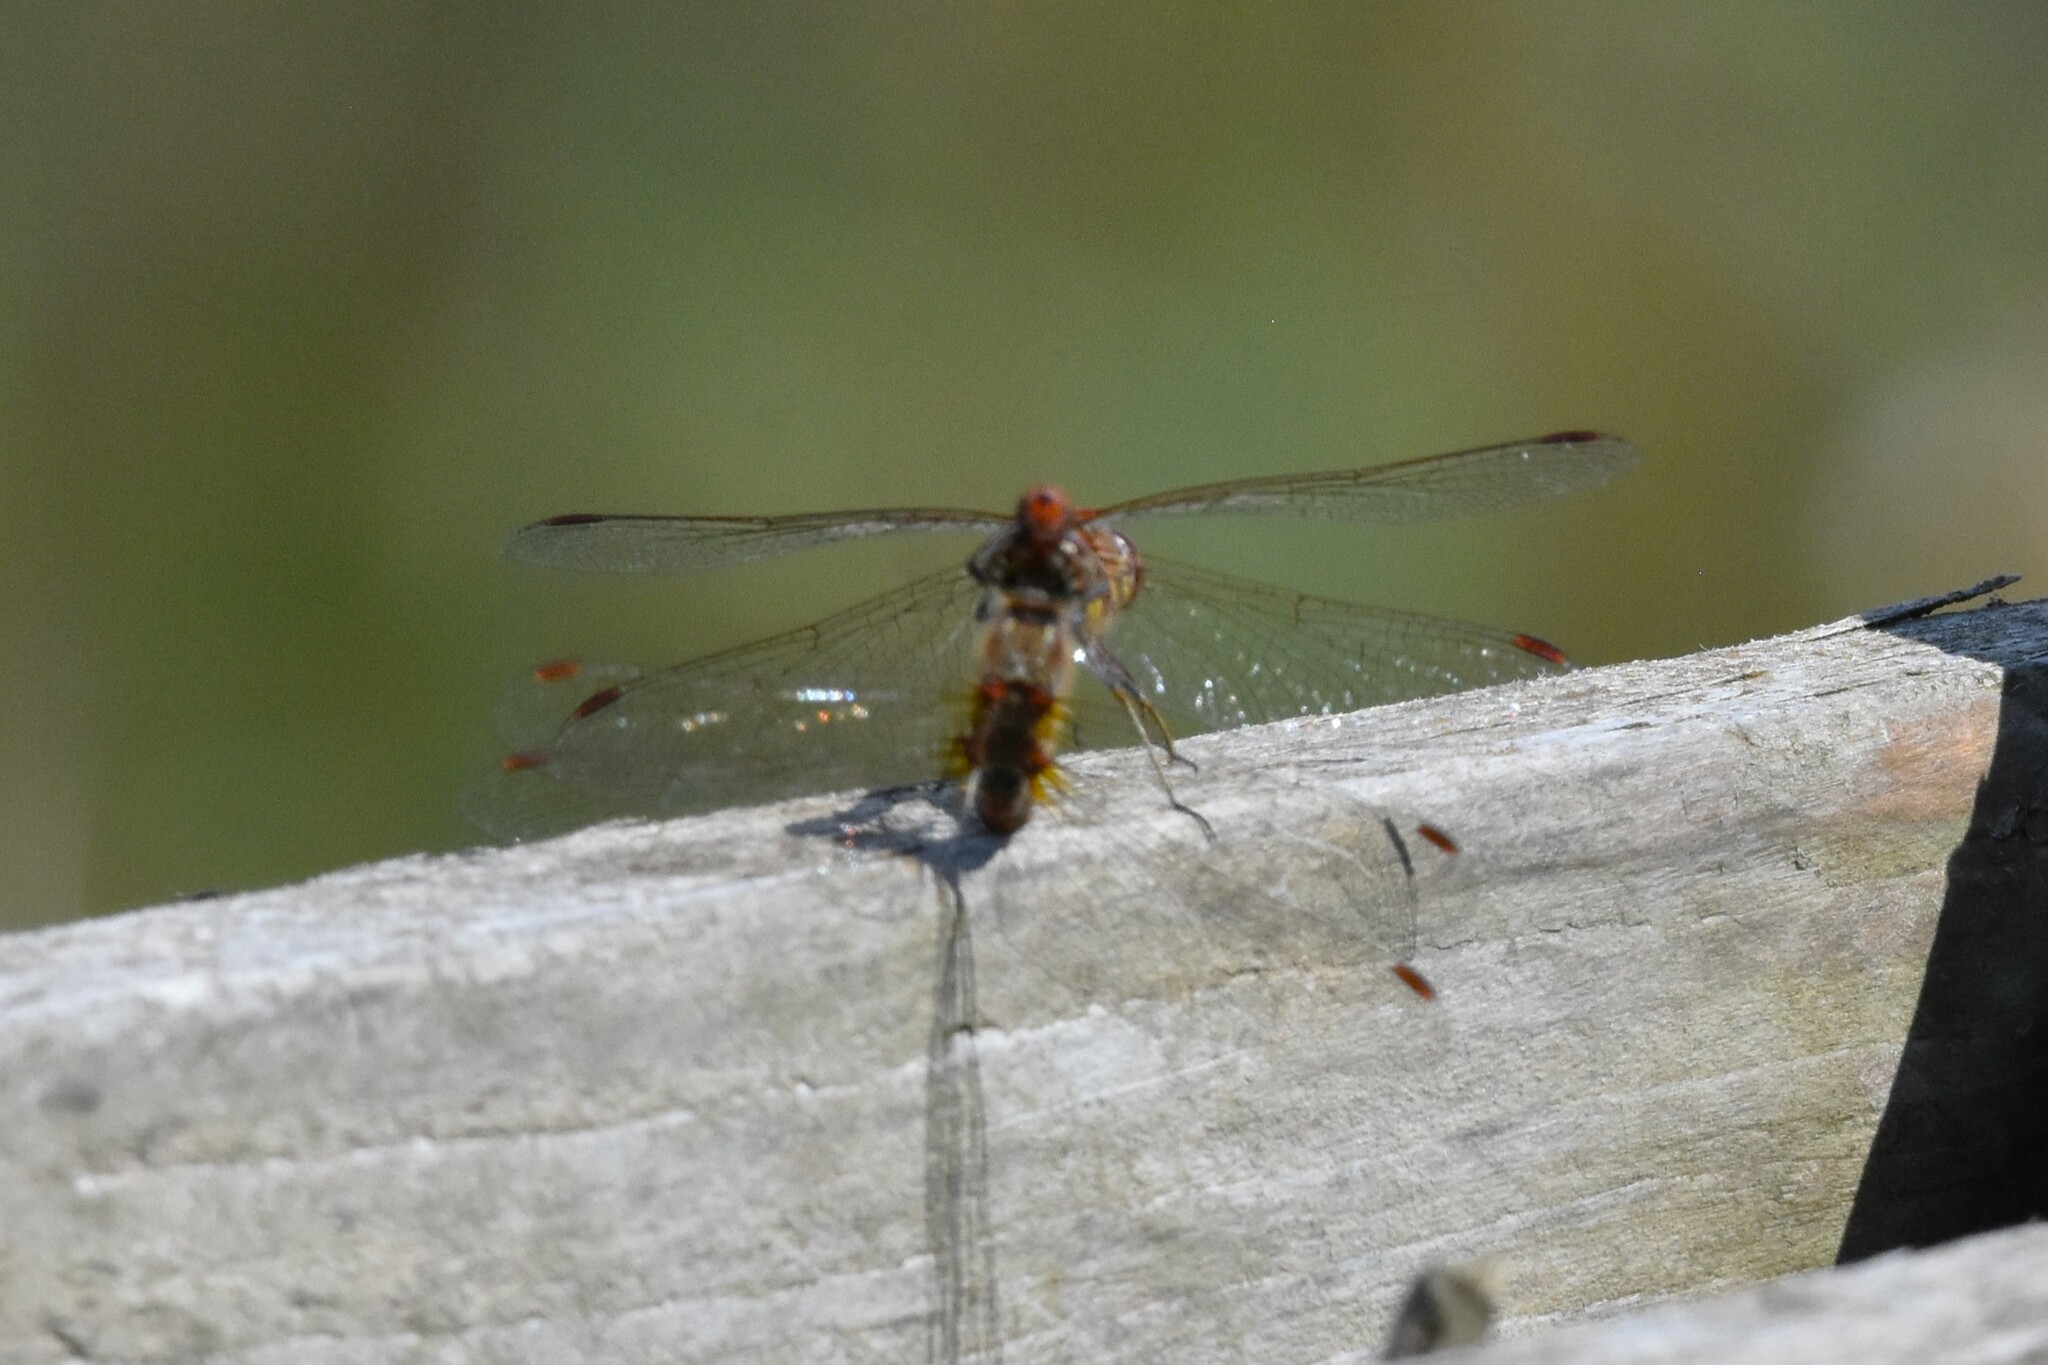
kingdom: Animalia
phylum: Arthropoda
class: Insecta
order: Odonata
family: Libellulidae
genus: Sympetrum
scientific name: Sympetrum striolatum
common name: Common darter
